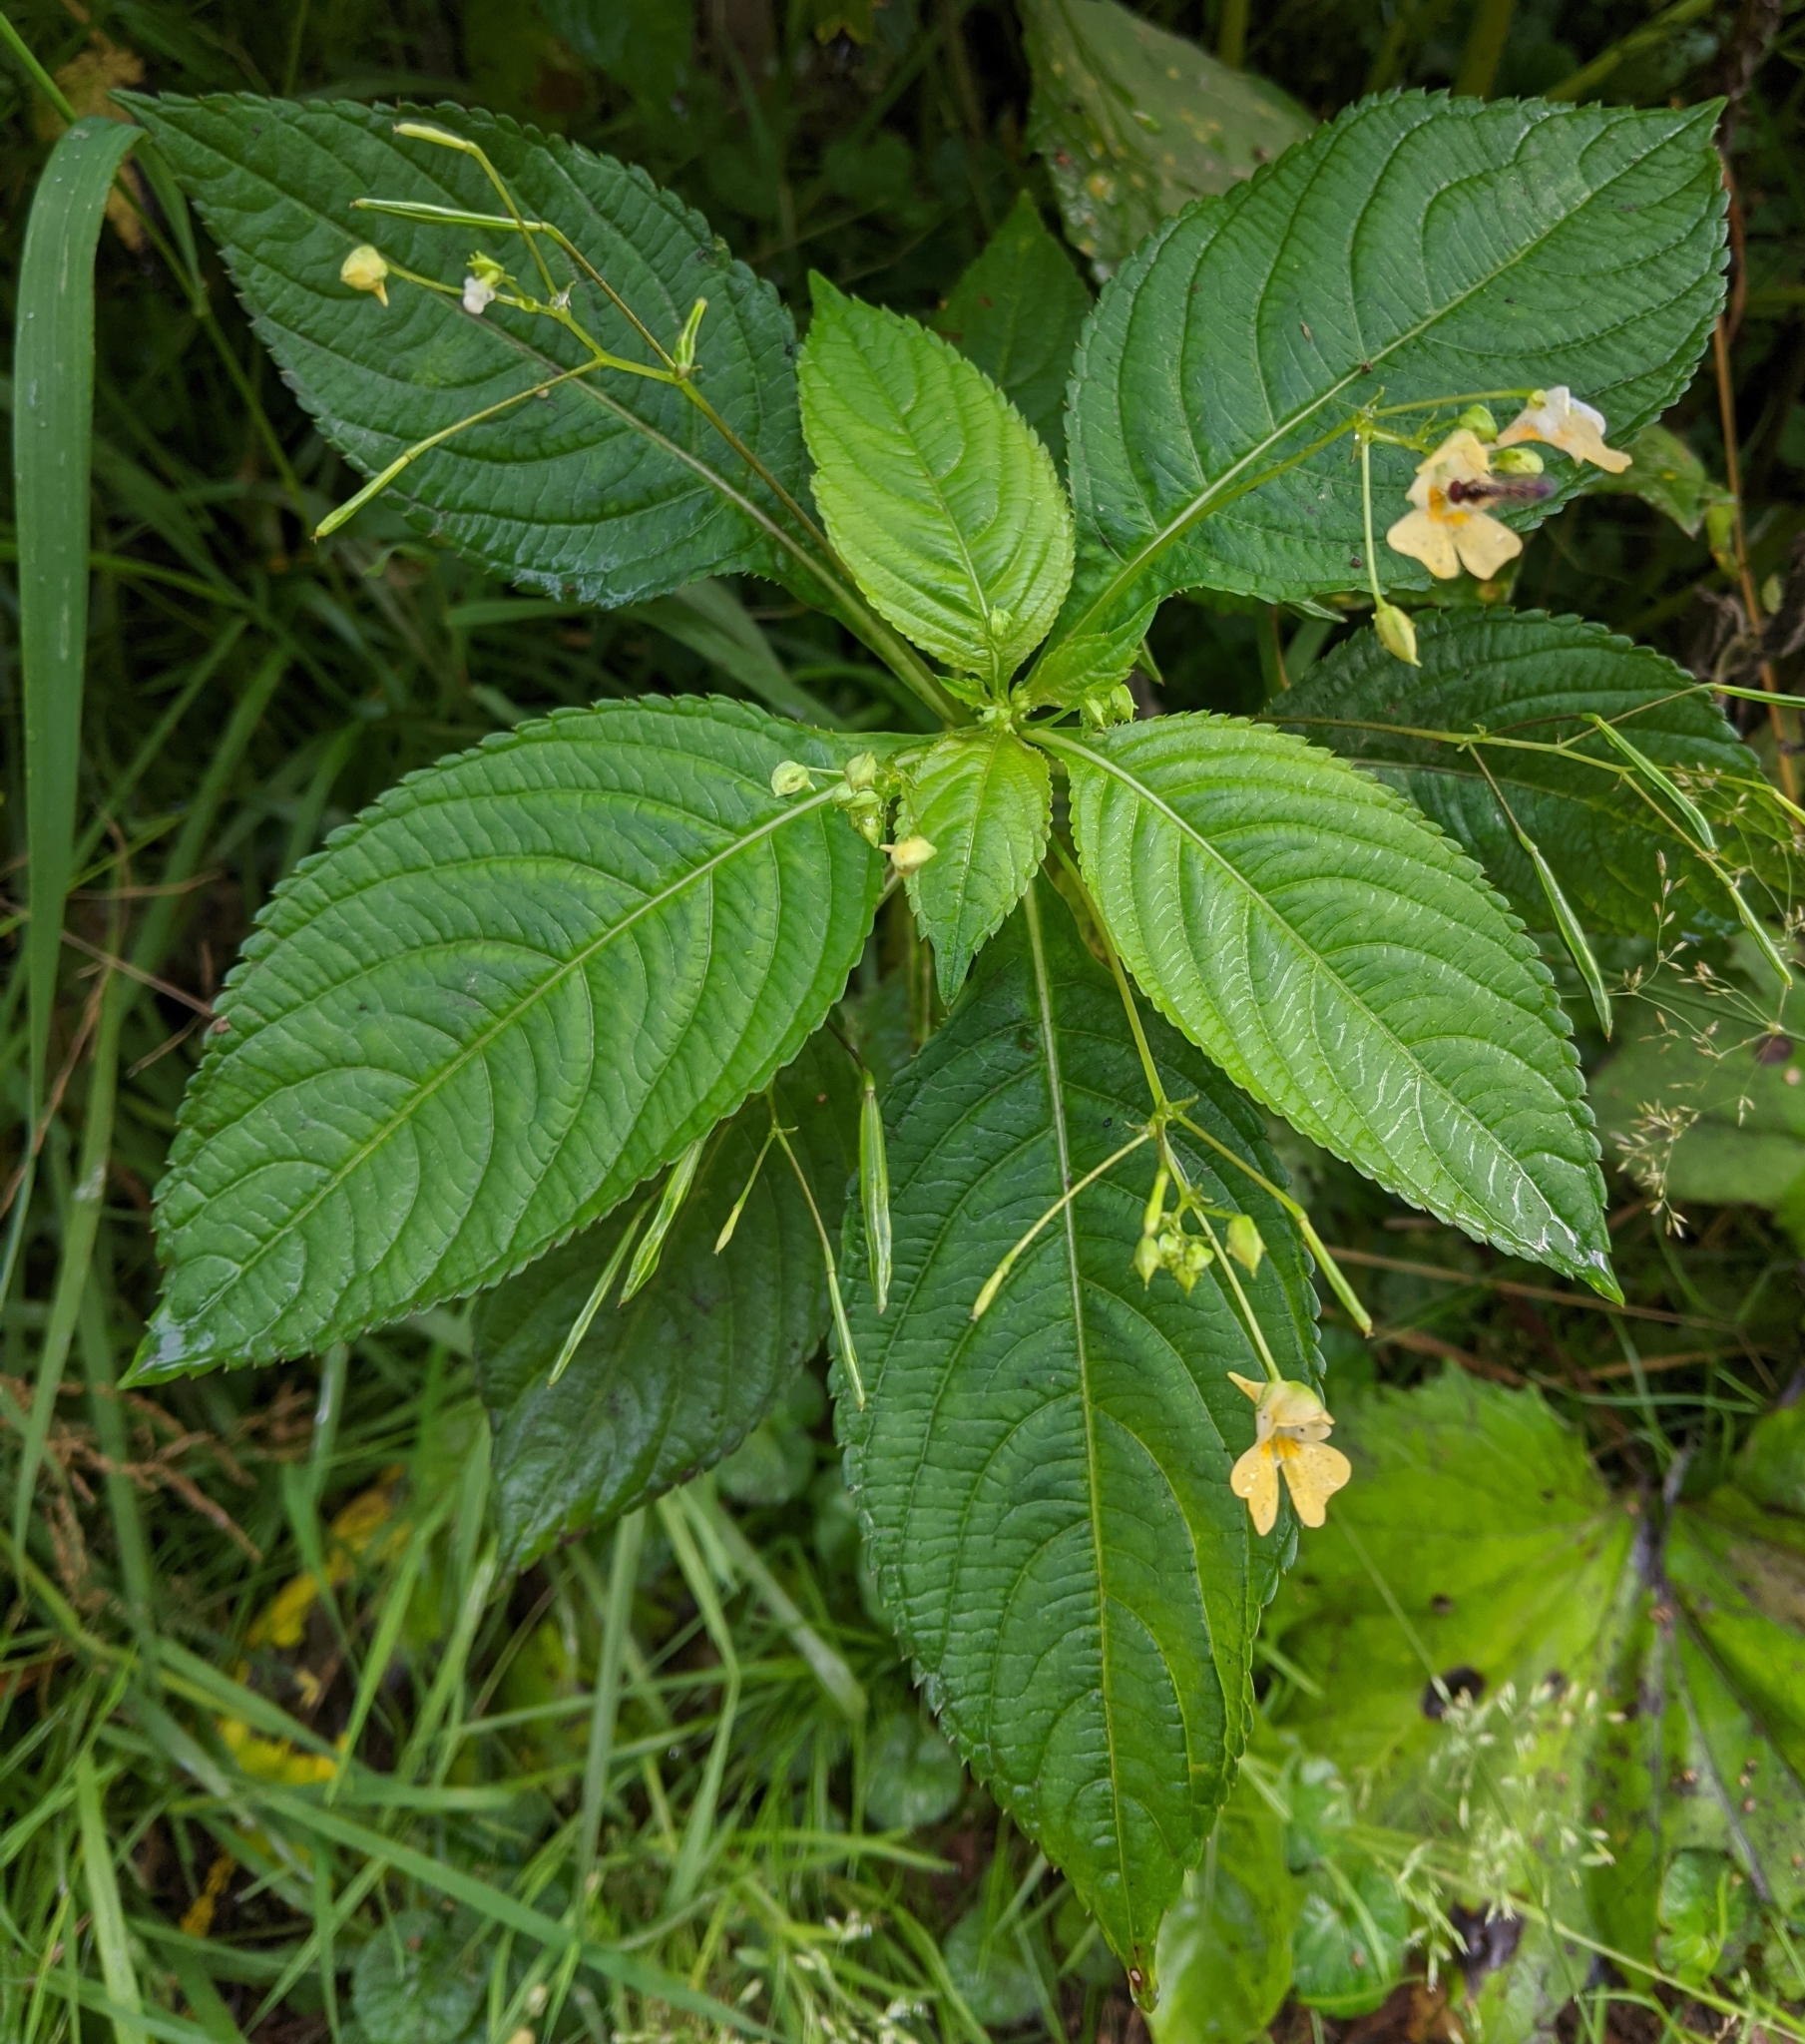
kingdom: Plantae
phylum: Tracheophyta
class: Magnoliopsida
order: Ericales
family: Balsaminaceae
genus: Impatiens
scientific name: Impatiens parviflora
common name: Small balsam
